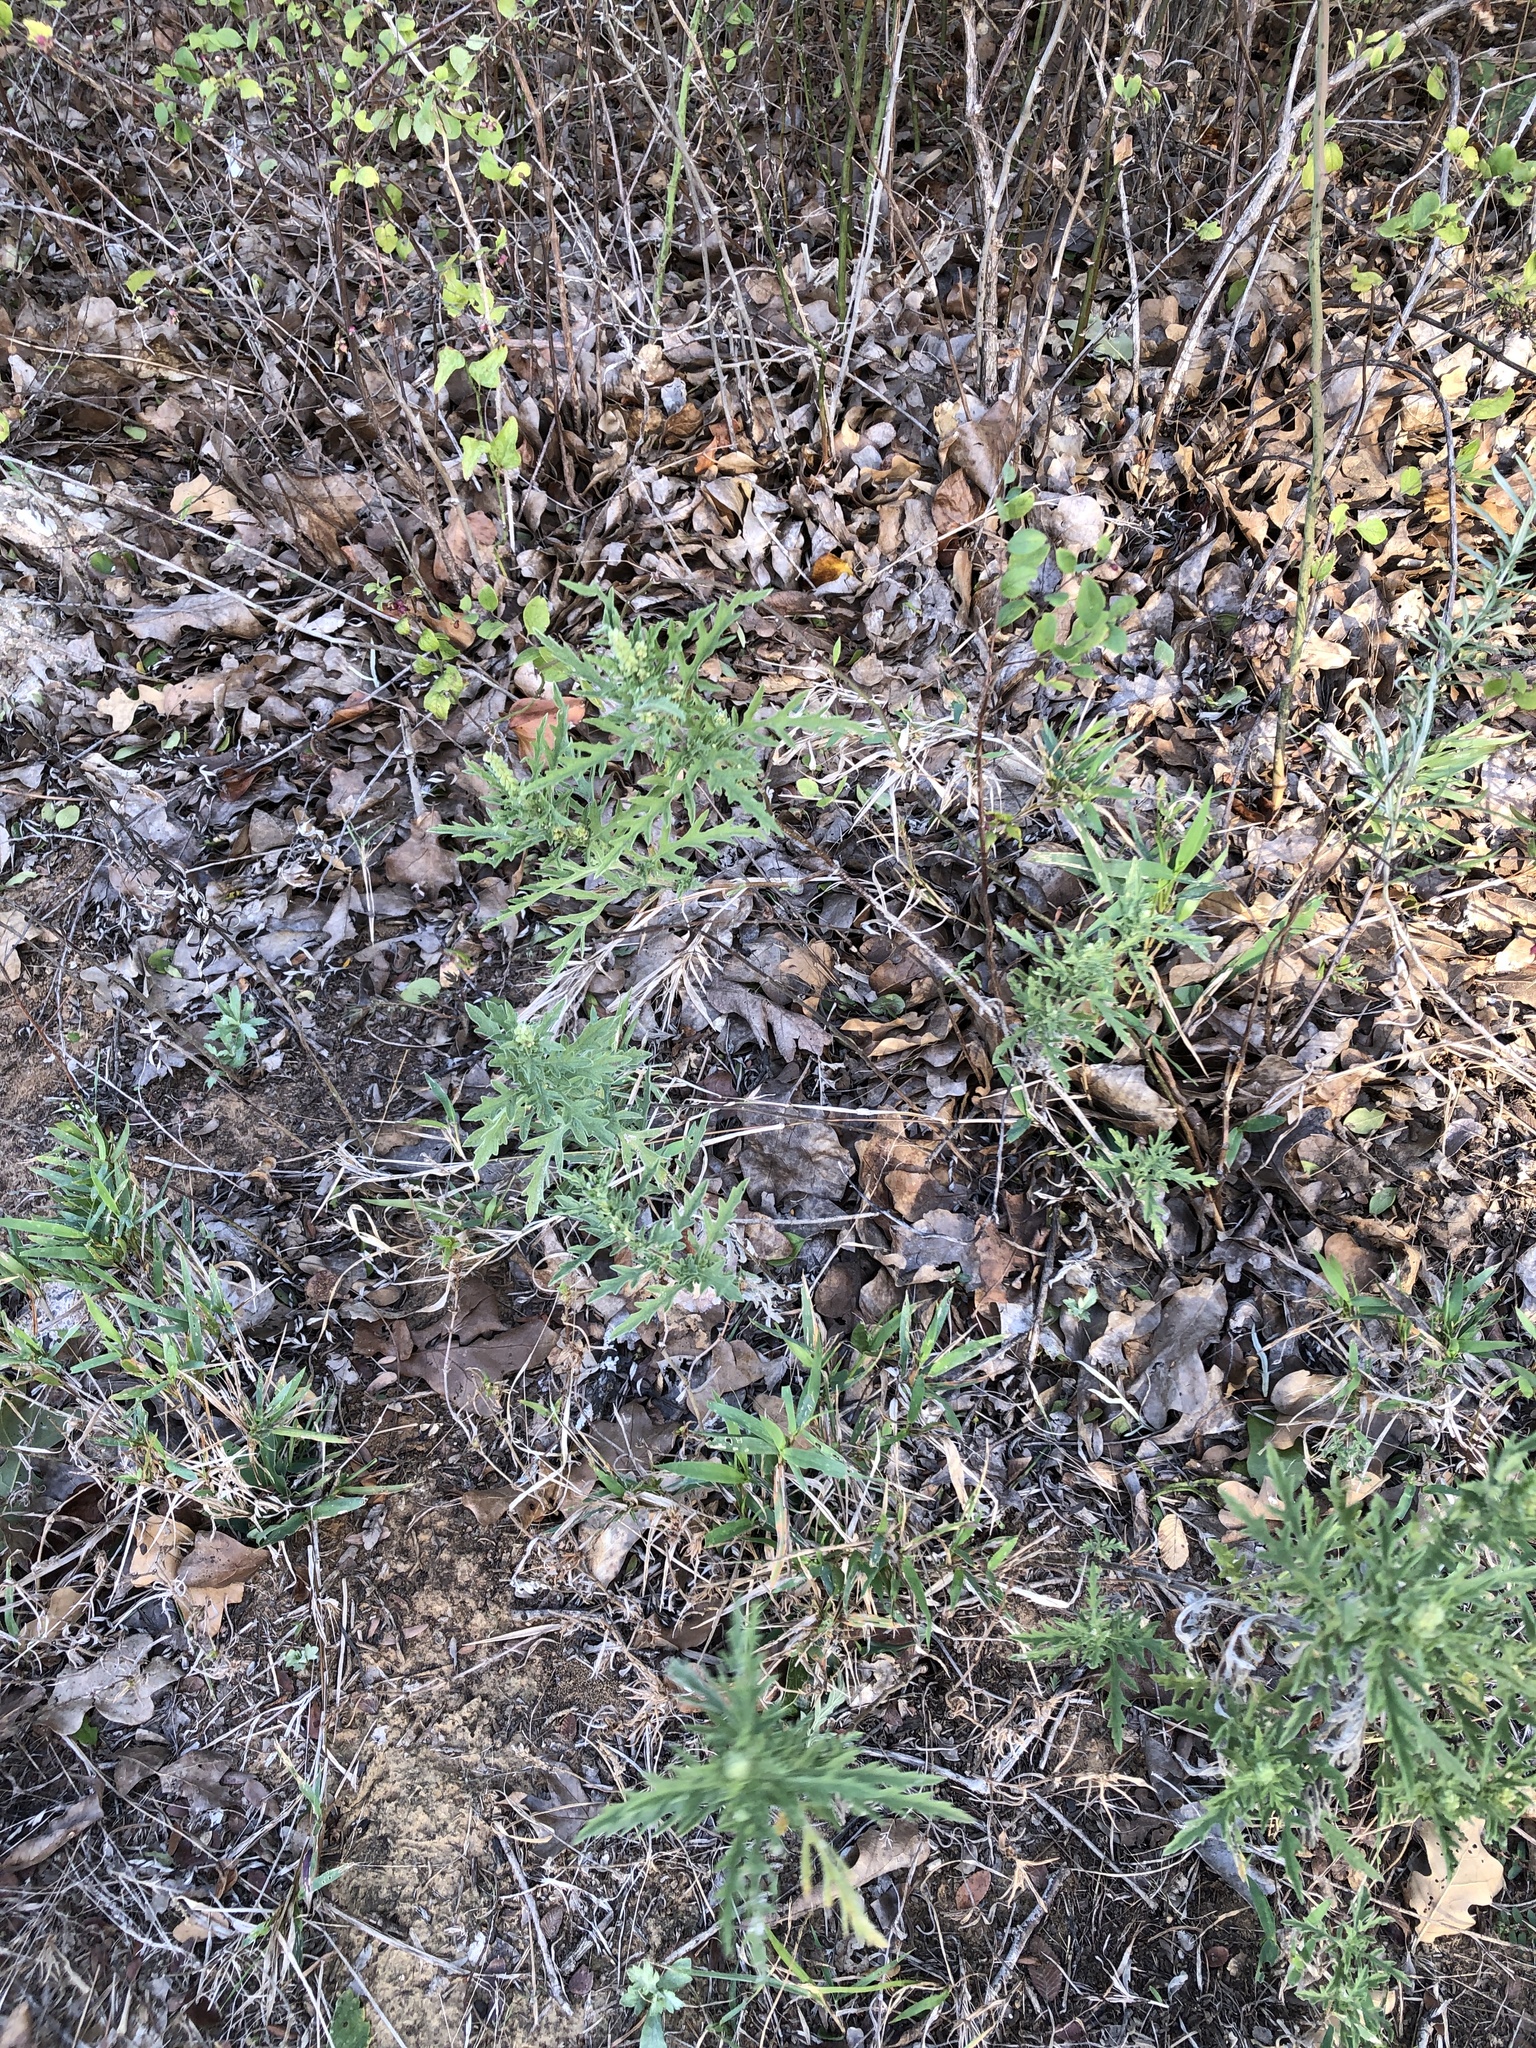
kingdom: Plantae
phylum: Tracheophyta
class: Magnoliopsida
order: Asterales
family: Asteraceae
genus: Ambrosia
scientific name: Ambrosia psilostachya
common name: Perennial ragweed
